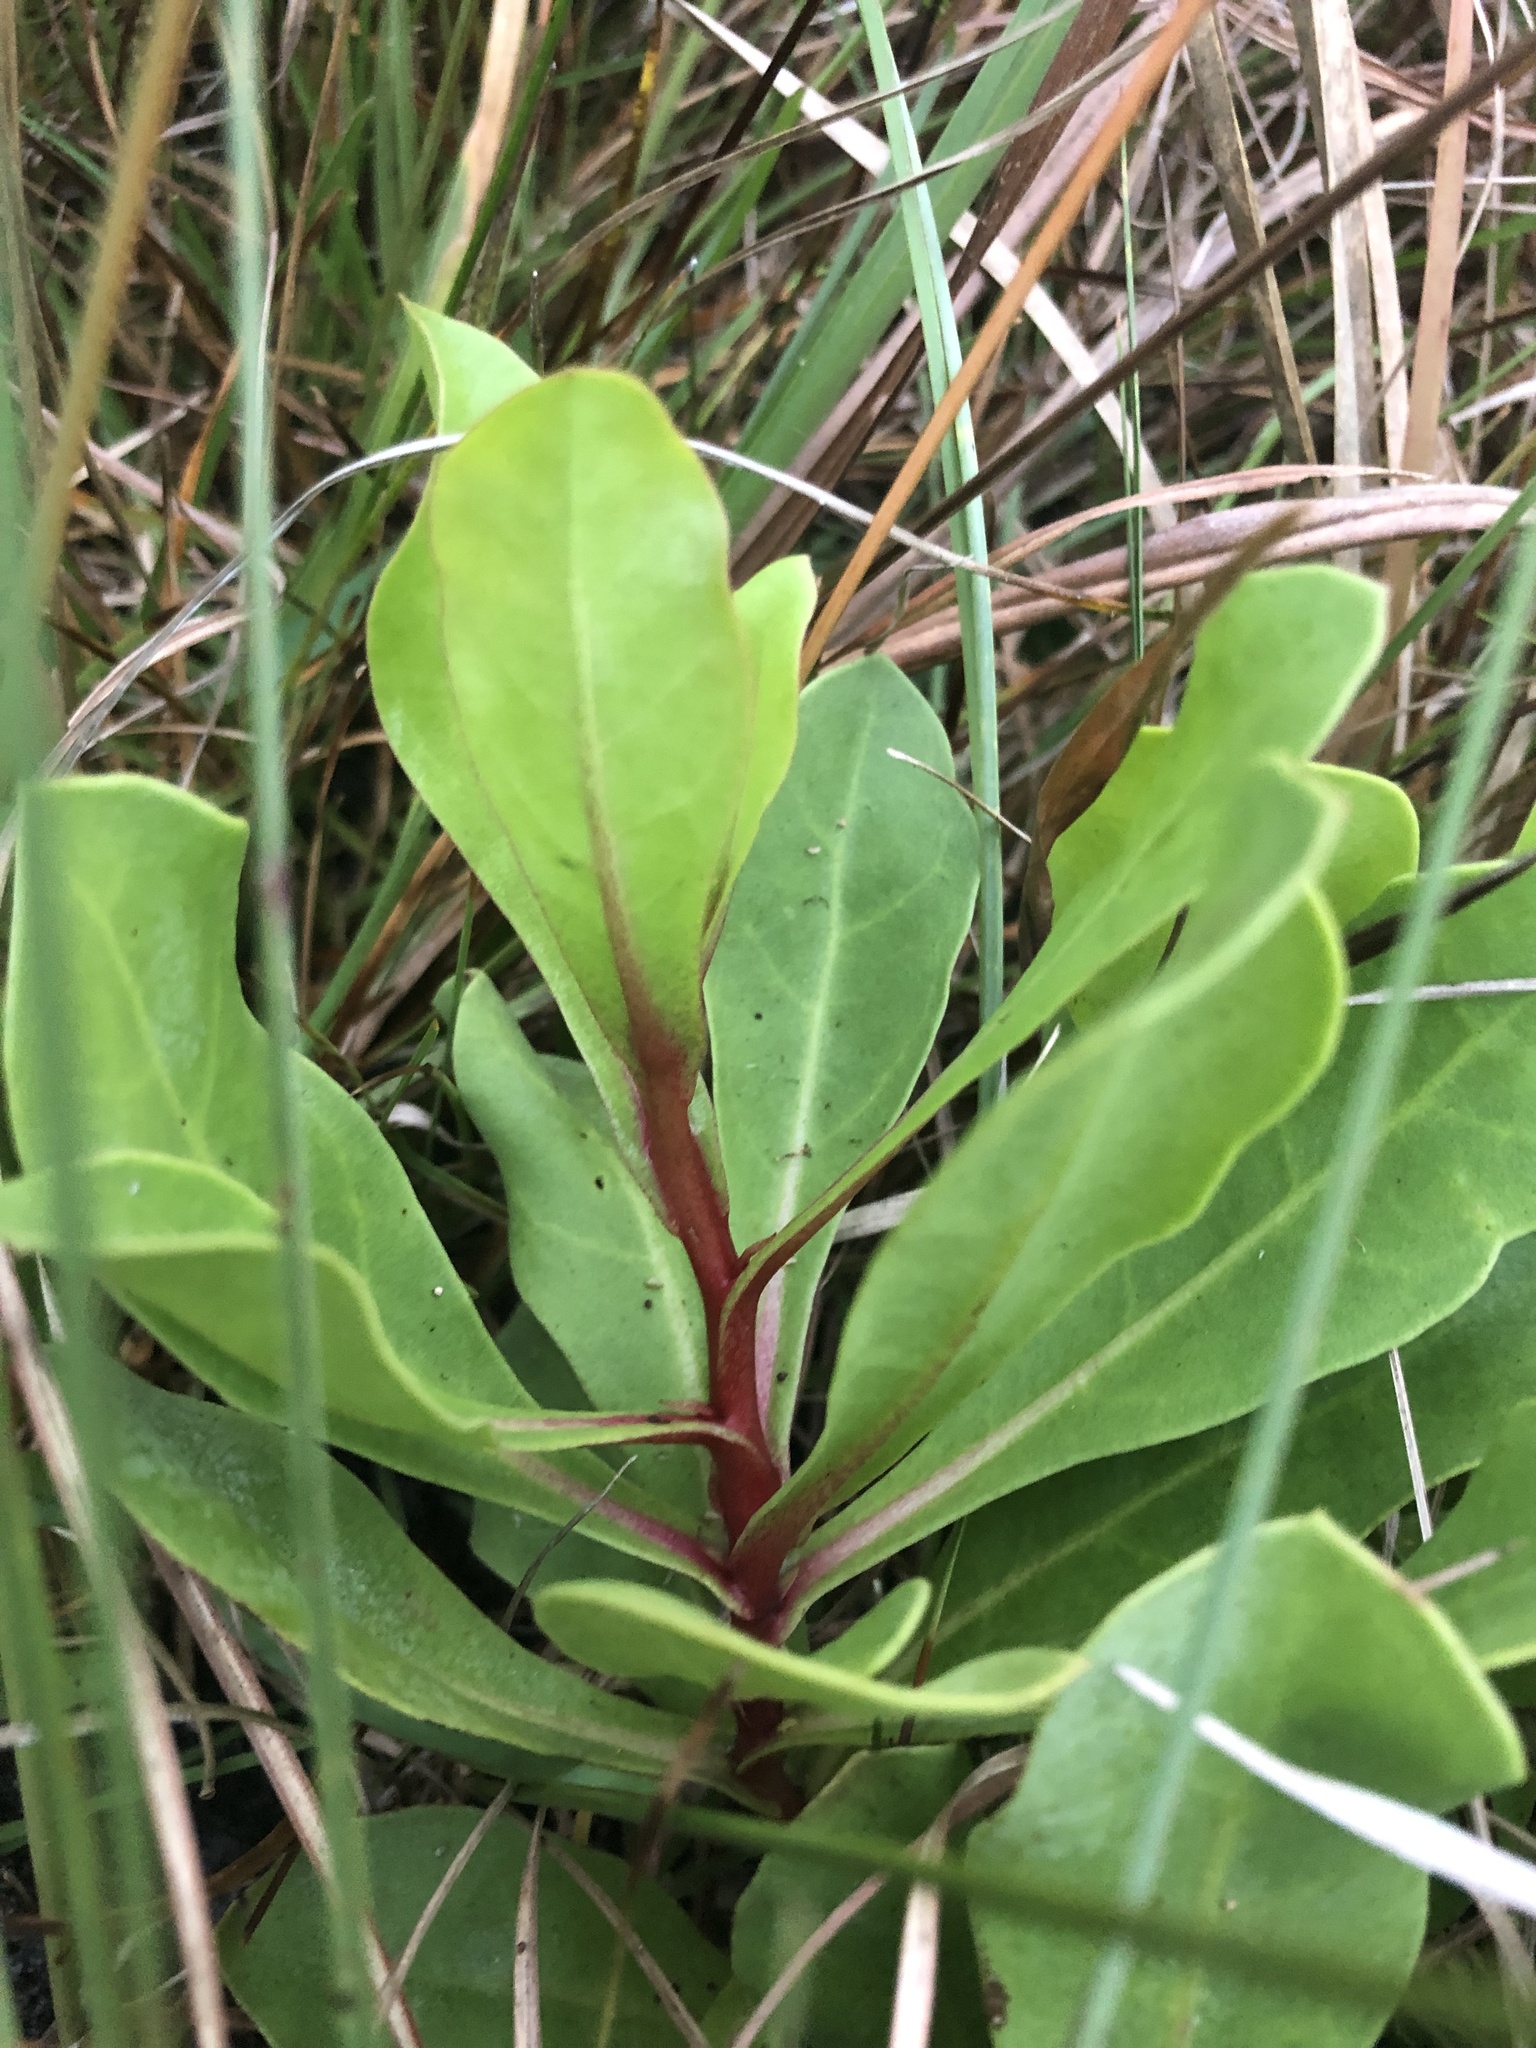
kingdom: Plantae
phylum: Tracheophyta
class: Magnoliopsida
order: Ericales
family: Primulaceae
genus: Samolus
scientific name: Samolus ebracteatus
